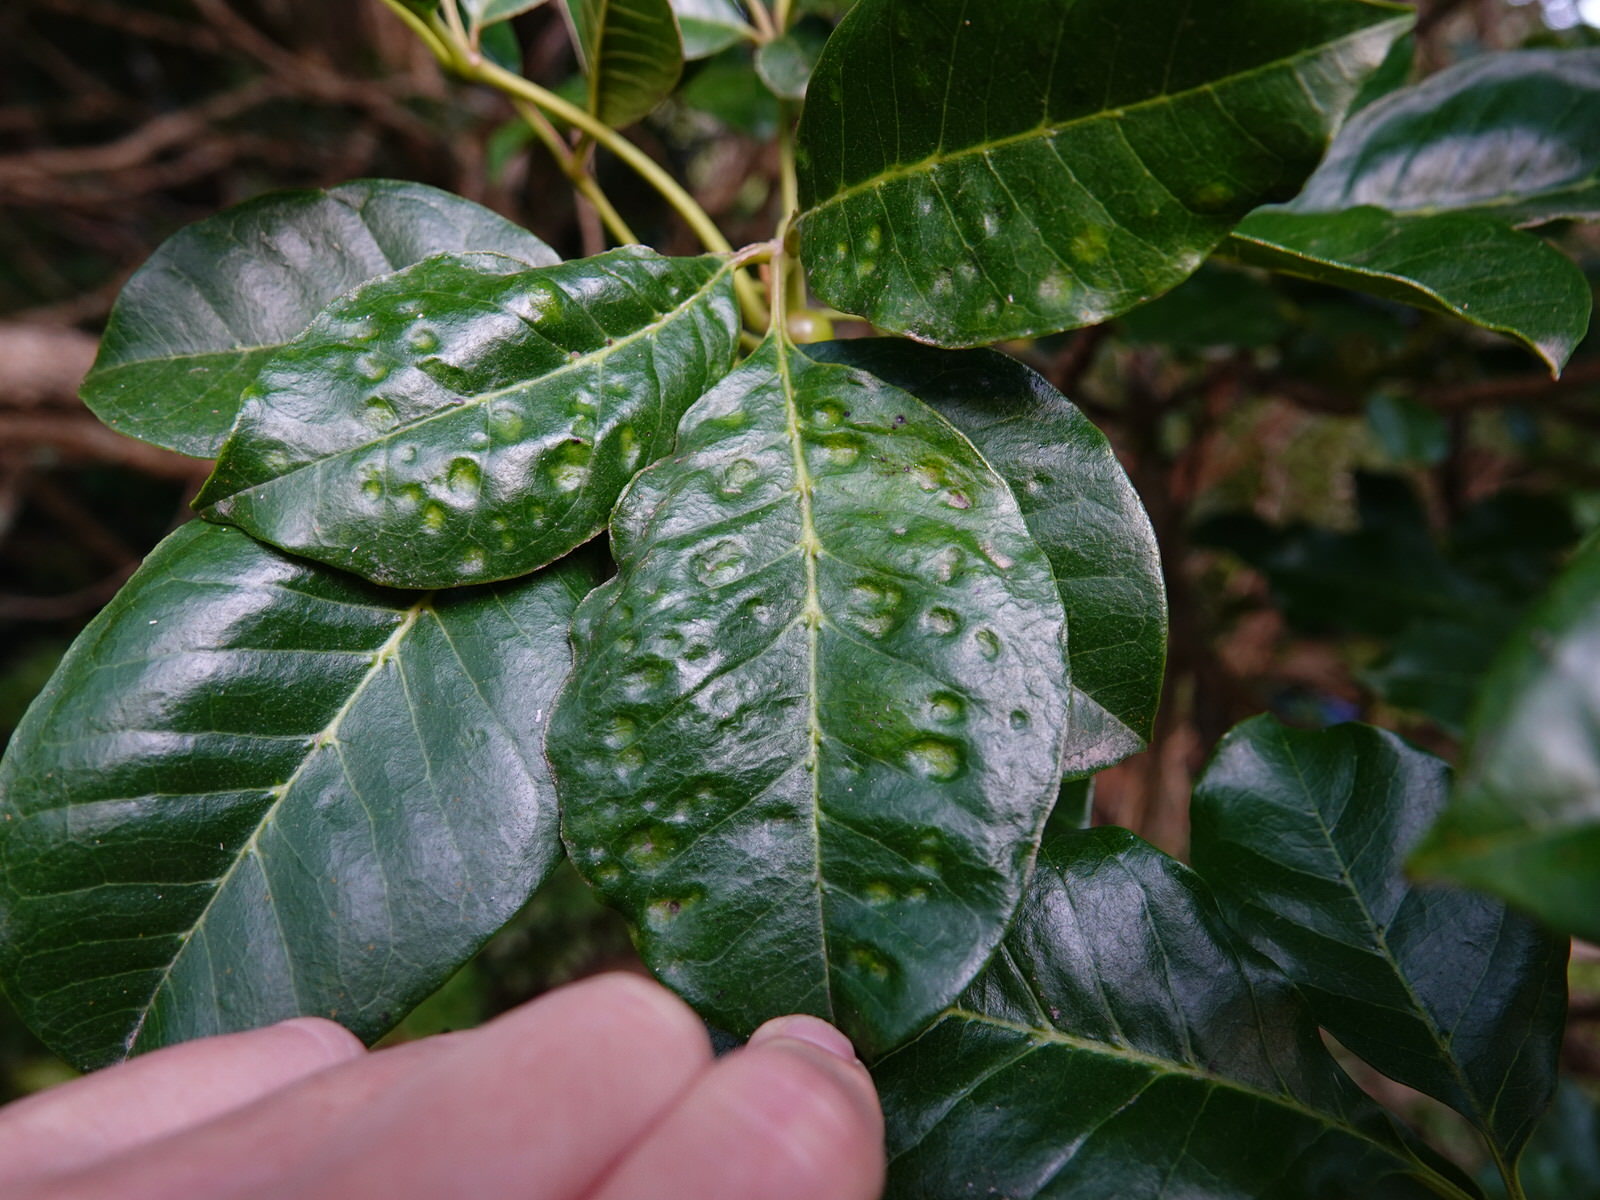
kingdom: Animalia
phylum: Arthropoda
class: Arachnida
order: Trombidiformes
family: Eriophyidae
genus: Acalitus
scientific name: Acalitus
